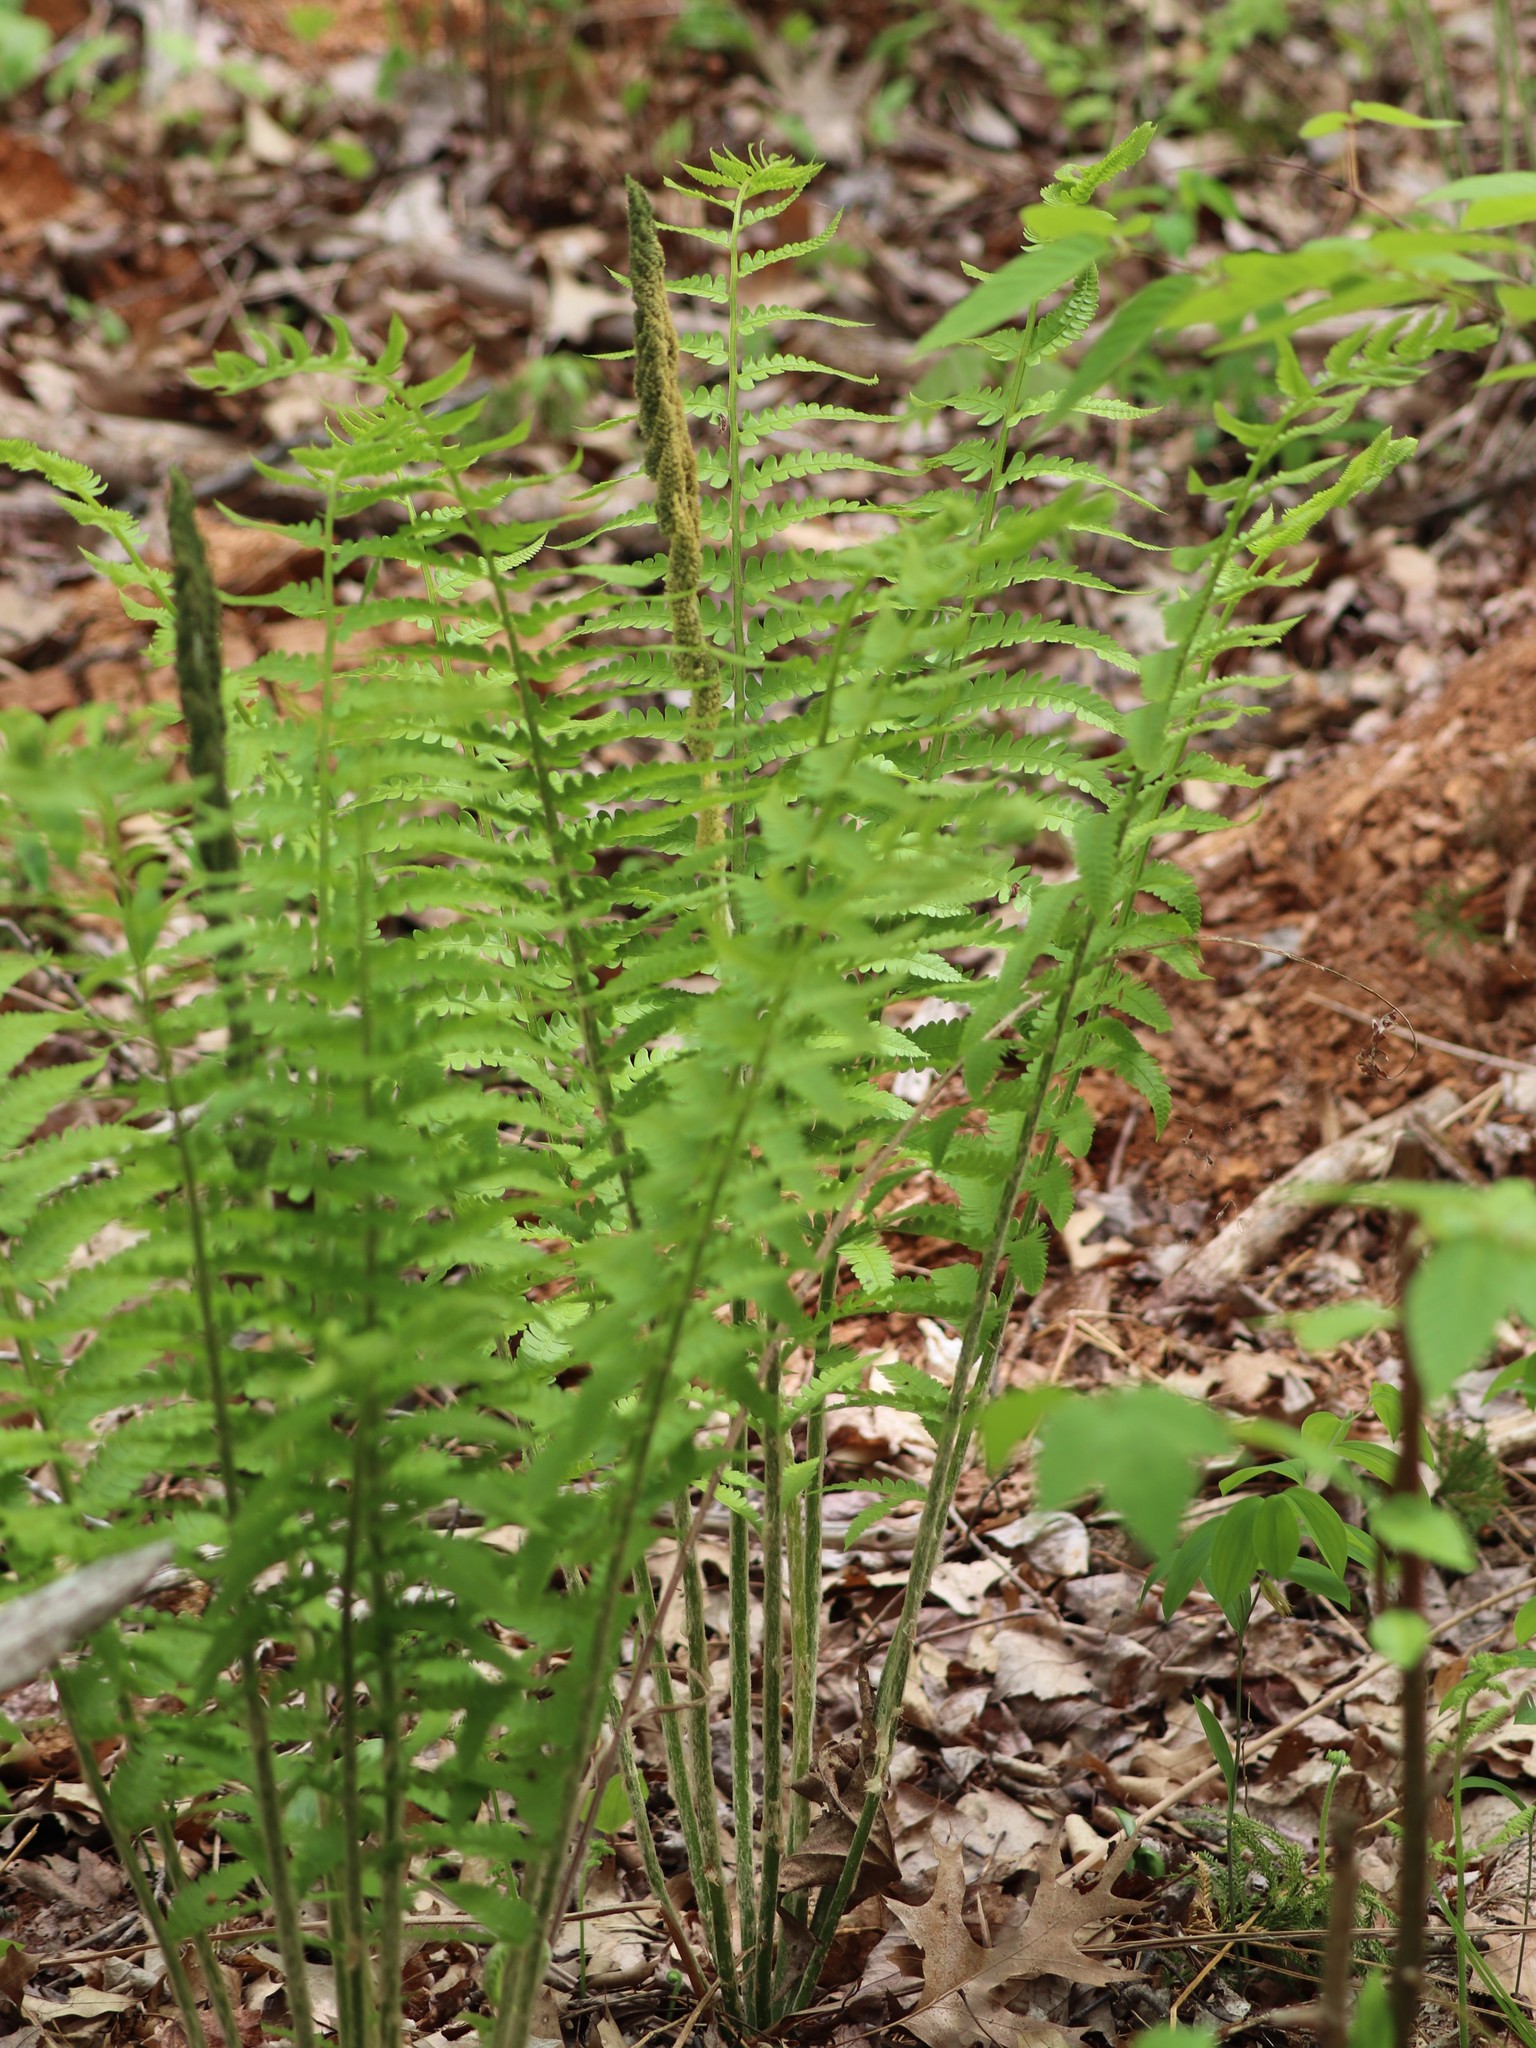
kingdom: Plantae
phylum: Tracheophyta
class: Polypodiopsida
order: Osmundales
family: Osmundaceae
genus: Osmundastrum
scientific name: Osmundastrum cinnamomeum
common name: Cinnamon fern
